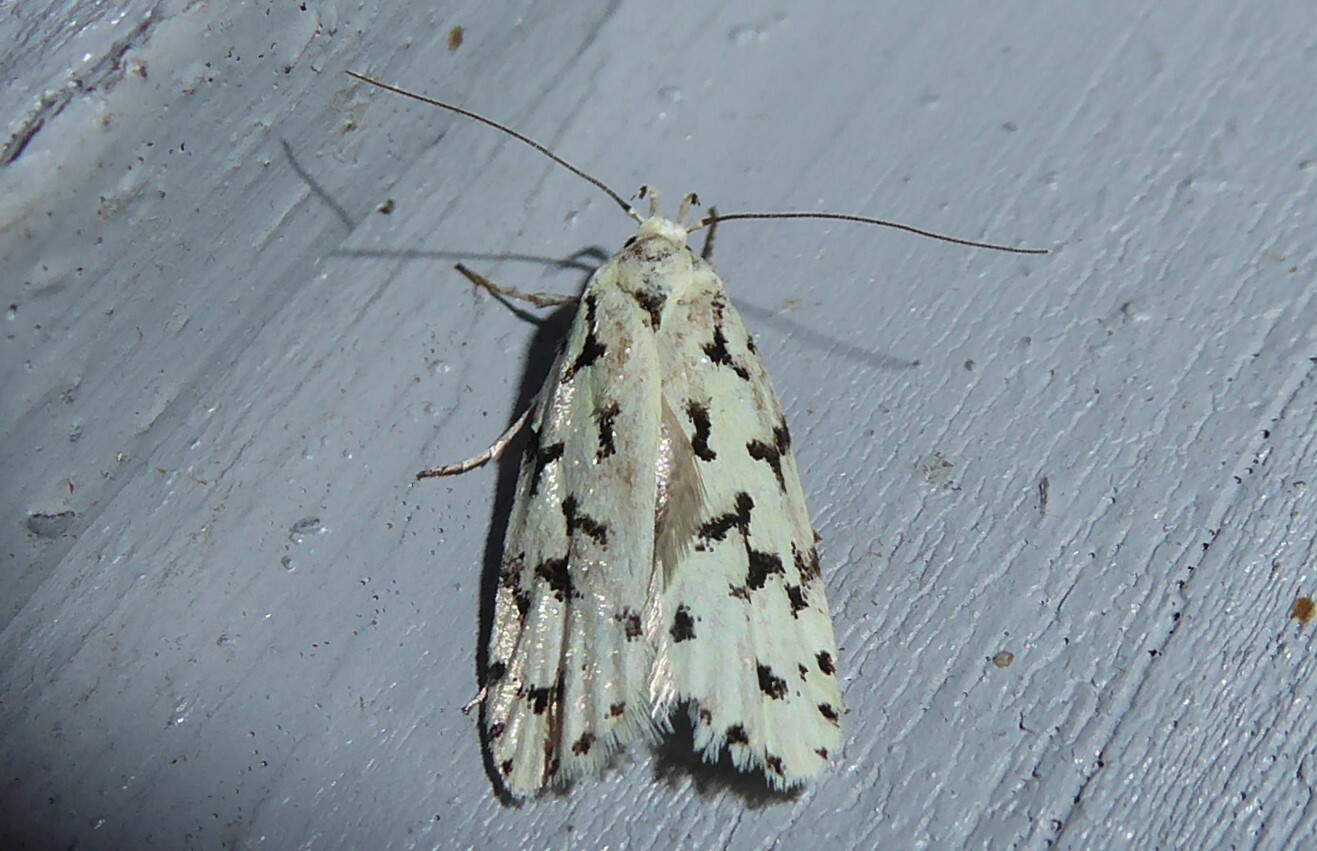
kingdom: Animalia
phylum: Arthropoda
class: Insecta
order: Lepidoptera
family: Oecophoridae
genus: Izatha
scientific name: Izatha huttoni
